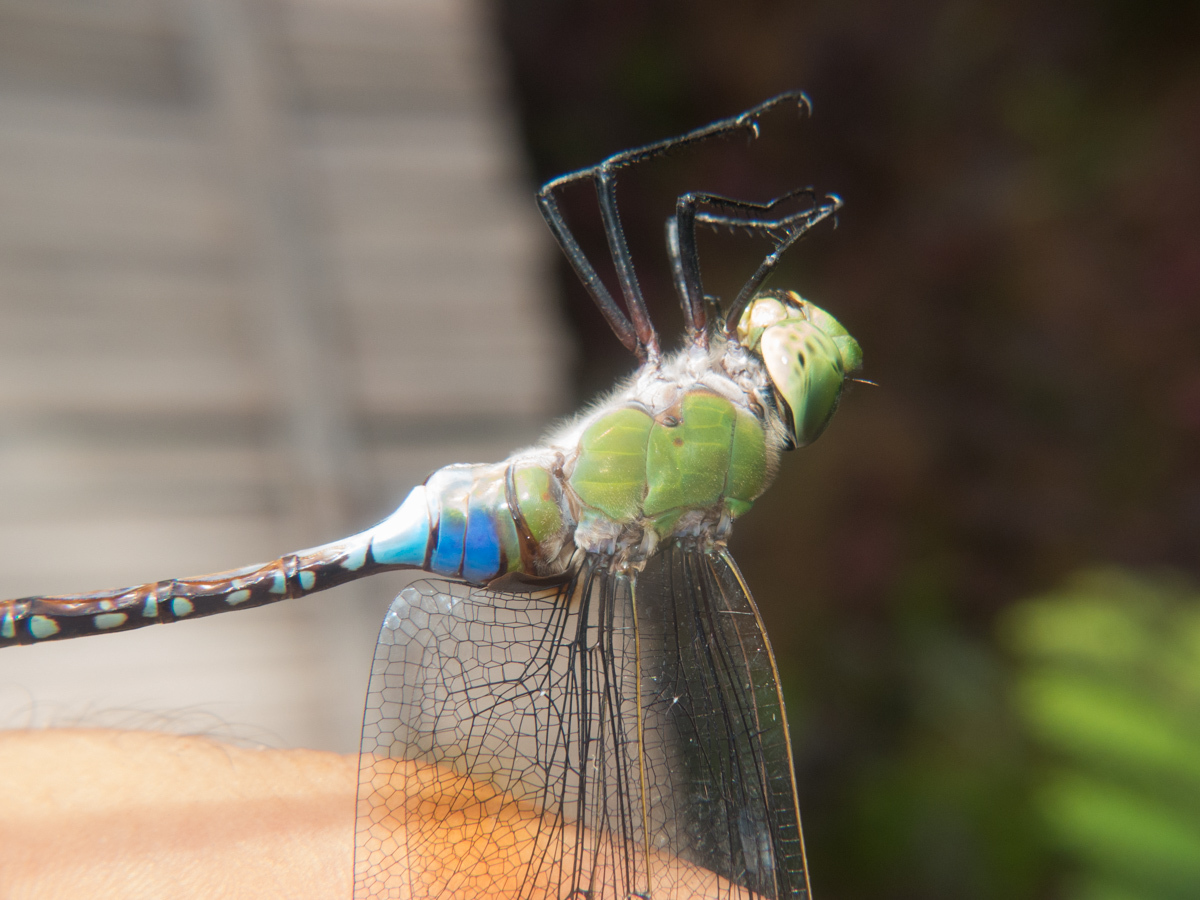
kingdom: Animalia
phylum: Arthropoda
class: Insecta
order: Odonata
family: Aeshnidae
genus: Anax
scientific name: Anax guttatus
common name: Emperor
